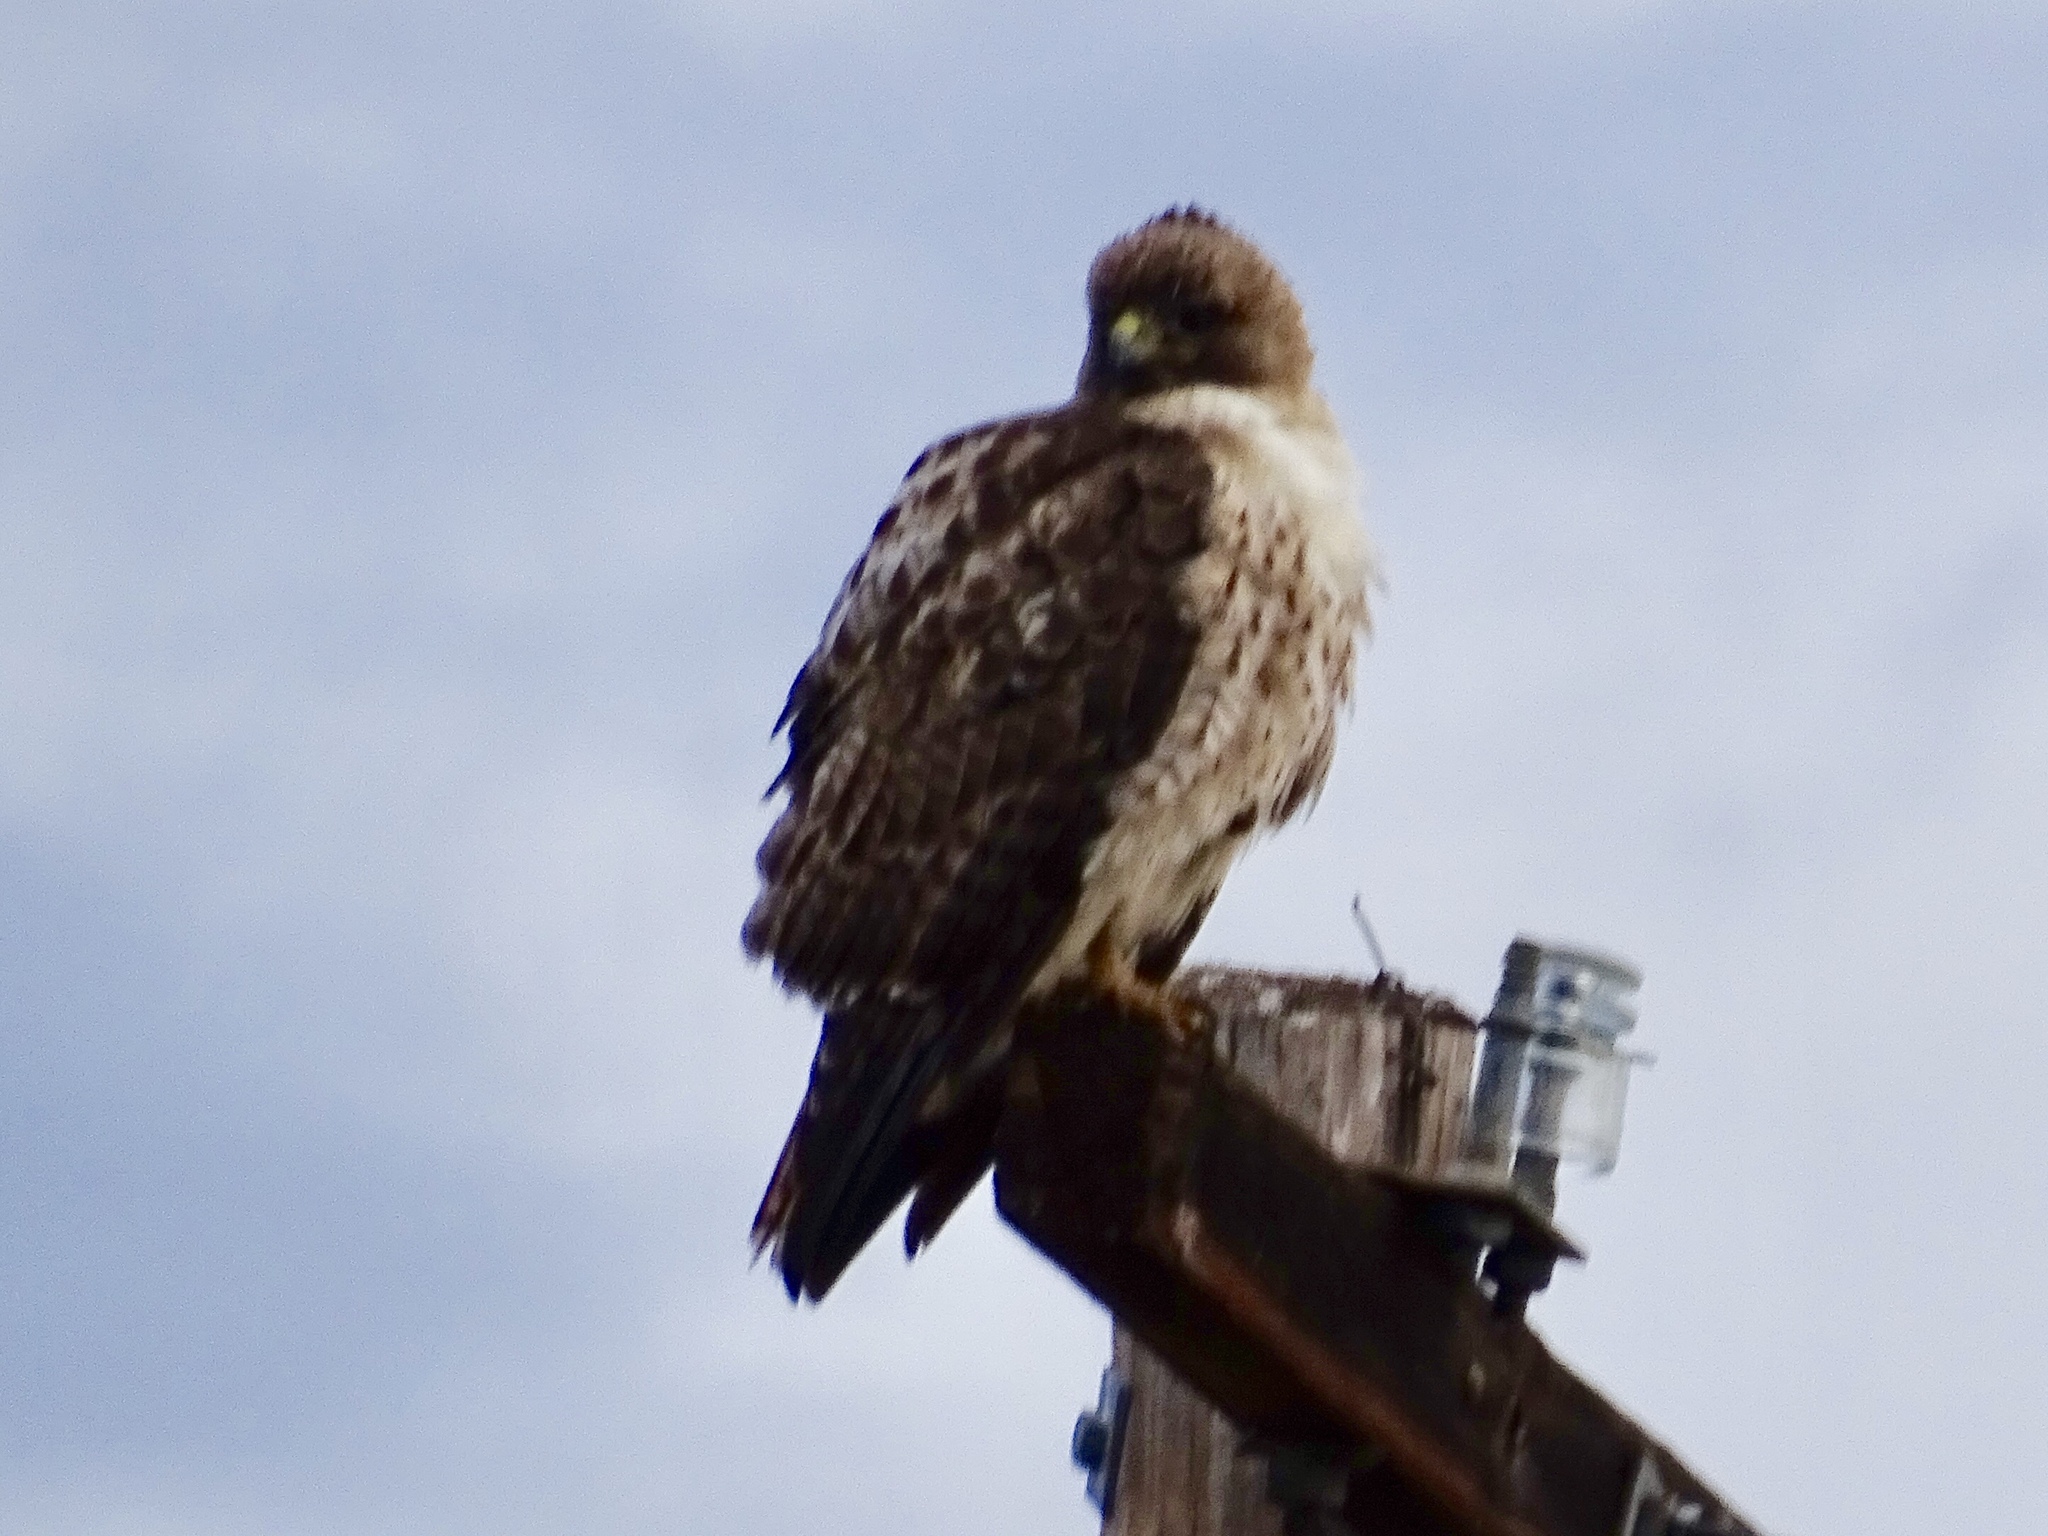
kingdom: Animalia
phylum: Chordata
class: Aves
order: Accipitriformes
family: Accipitridae
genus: Buteo
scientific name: Buteo jamaicensis
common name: Red-tailed hawk
